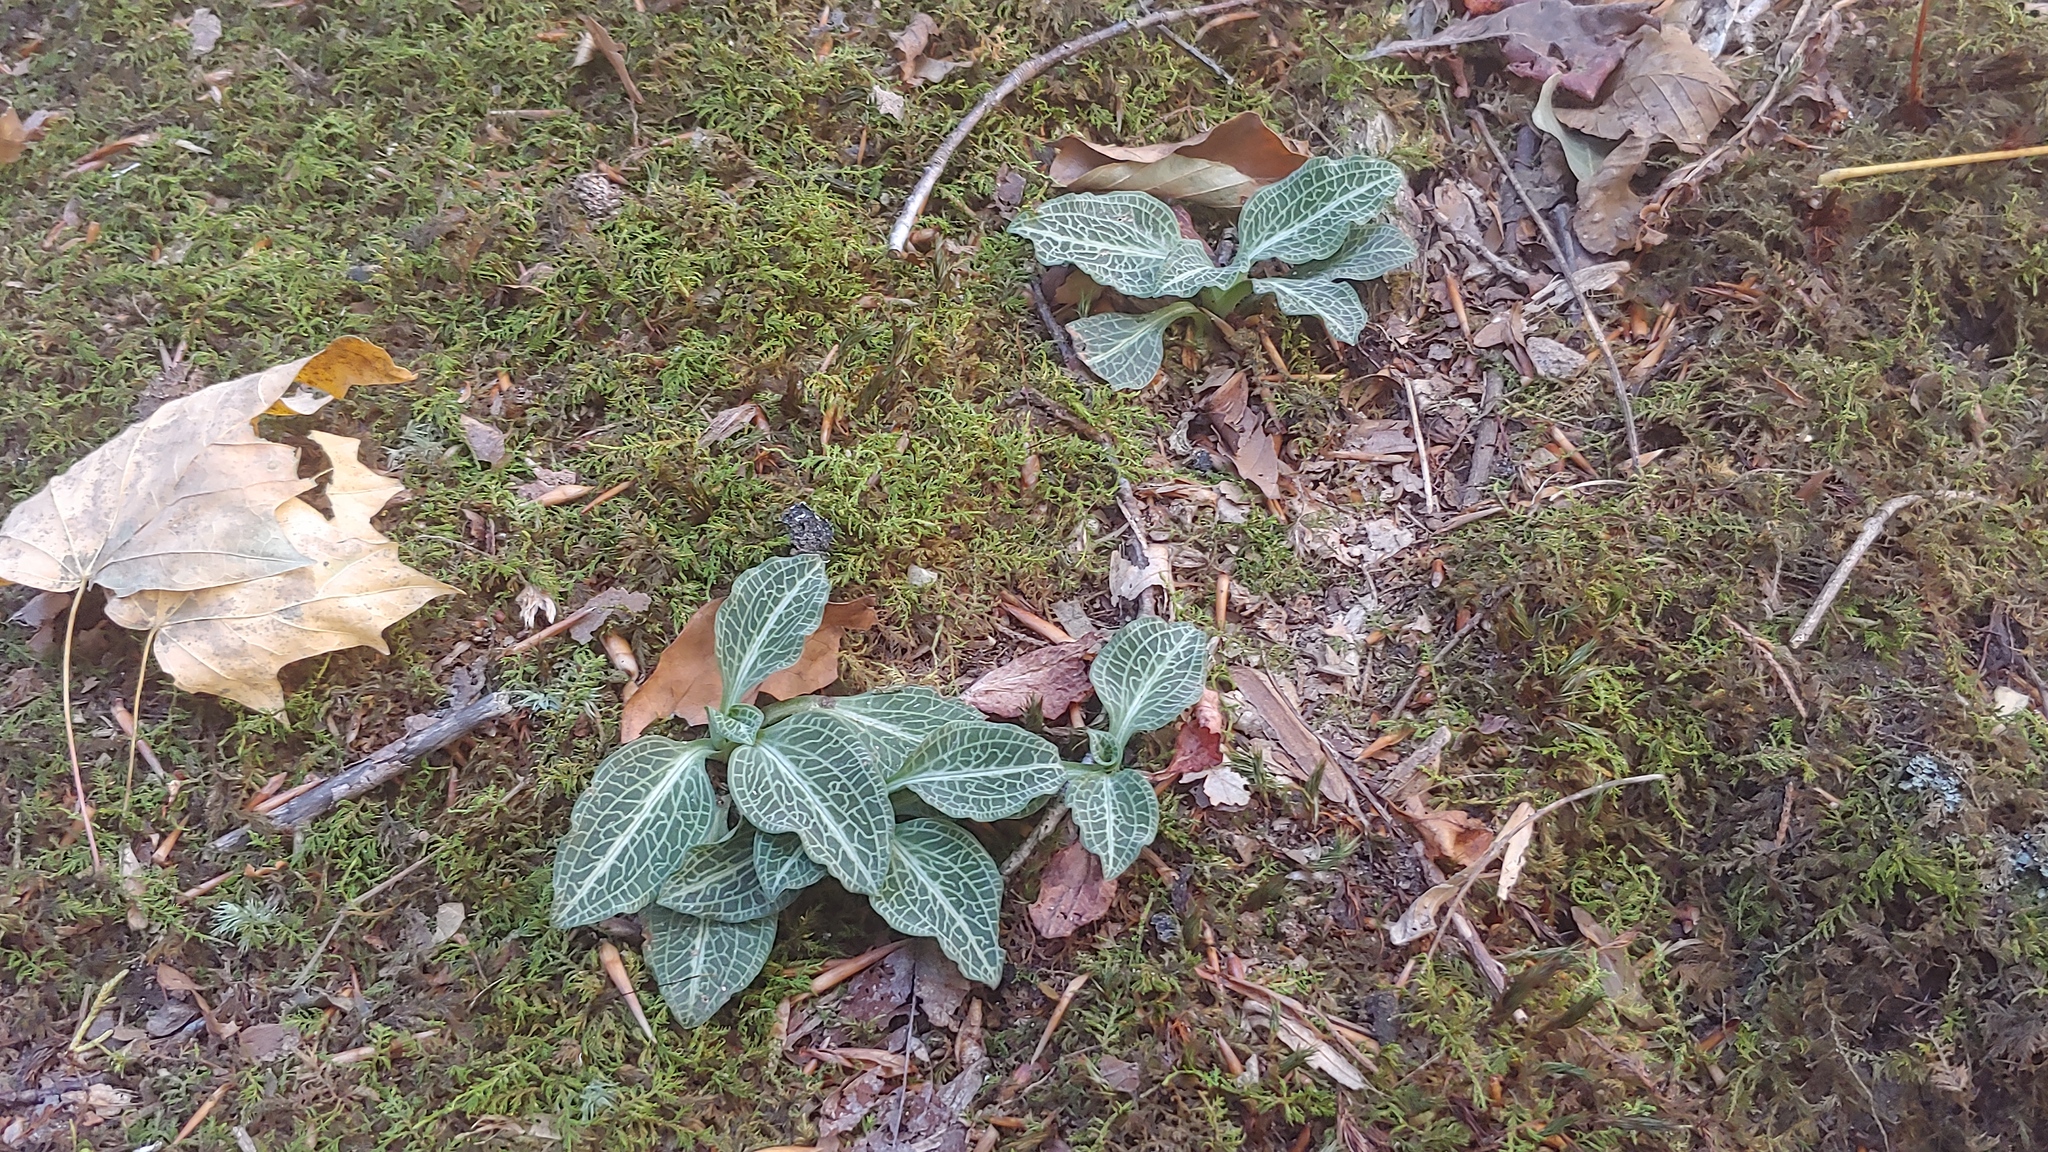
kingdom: Plantae
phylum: Tracheophyta
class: Liliopsida
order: Asparagales
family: Orchidaceae
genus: Goodyera
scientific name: Goodyera pubescens
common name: Downy rattlesnake-plantain
